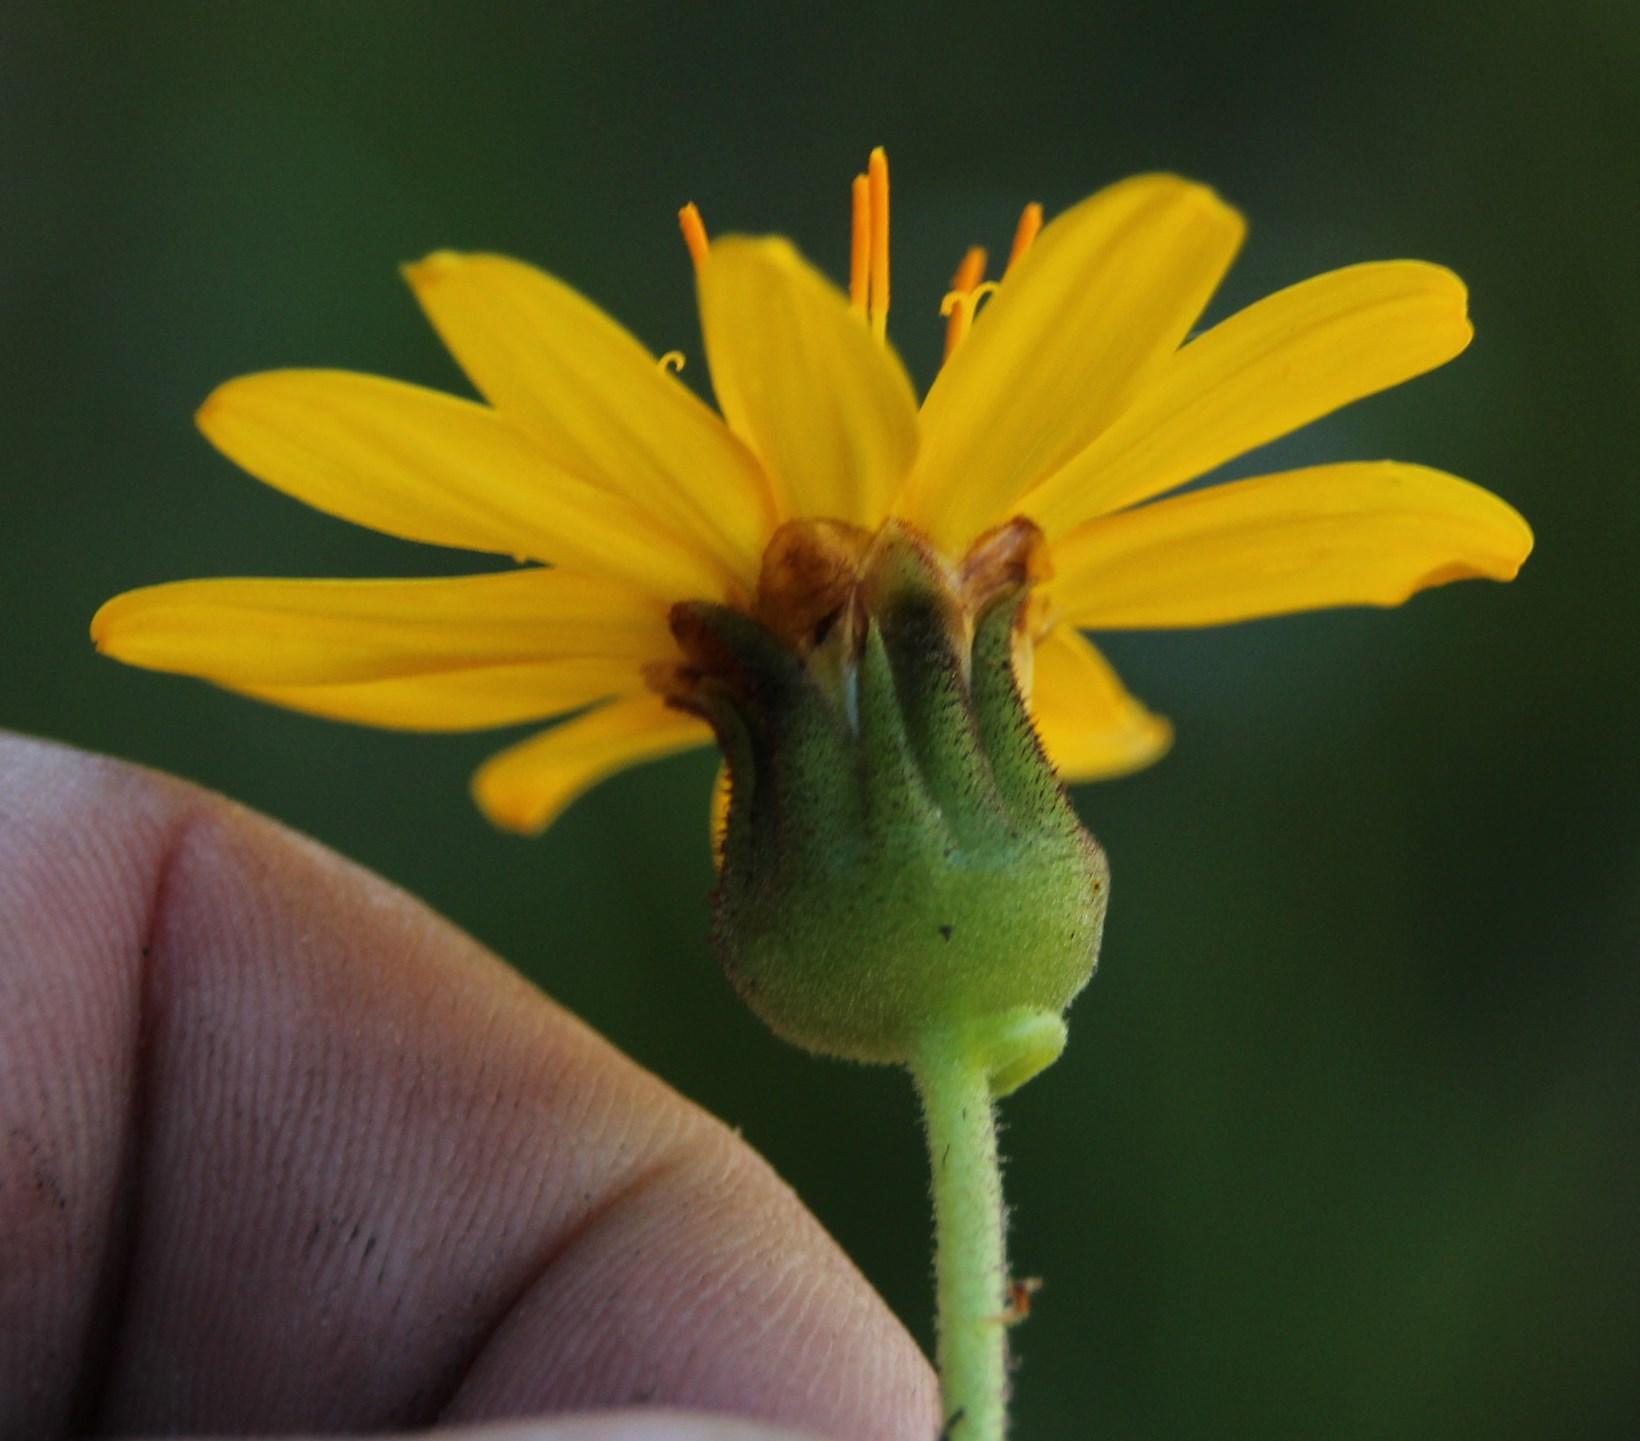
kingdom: Plantae
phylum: Tracheophyta
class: Magnoliopsida
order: Asterales
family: Asteraceae
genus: Heterolepis
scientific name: Heterolepis aliena
